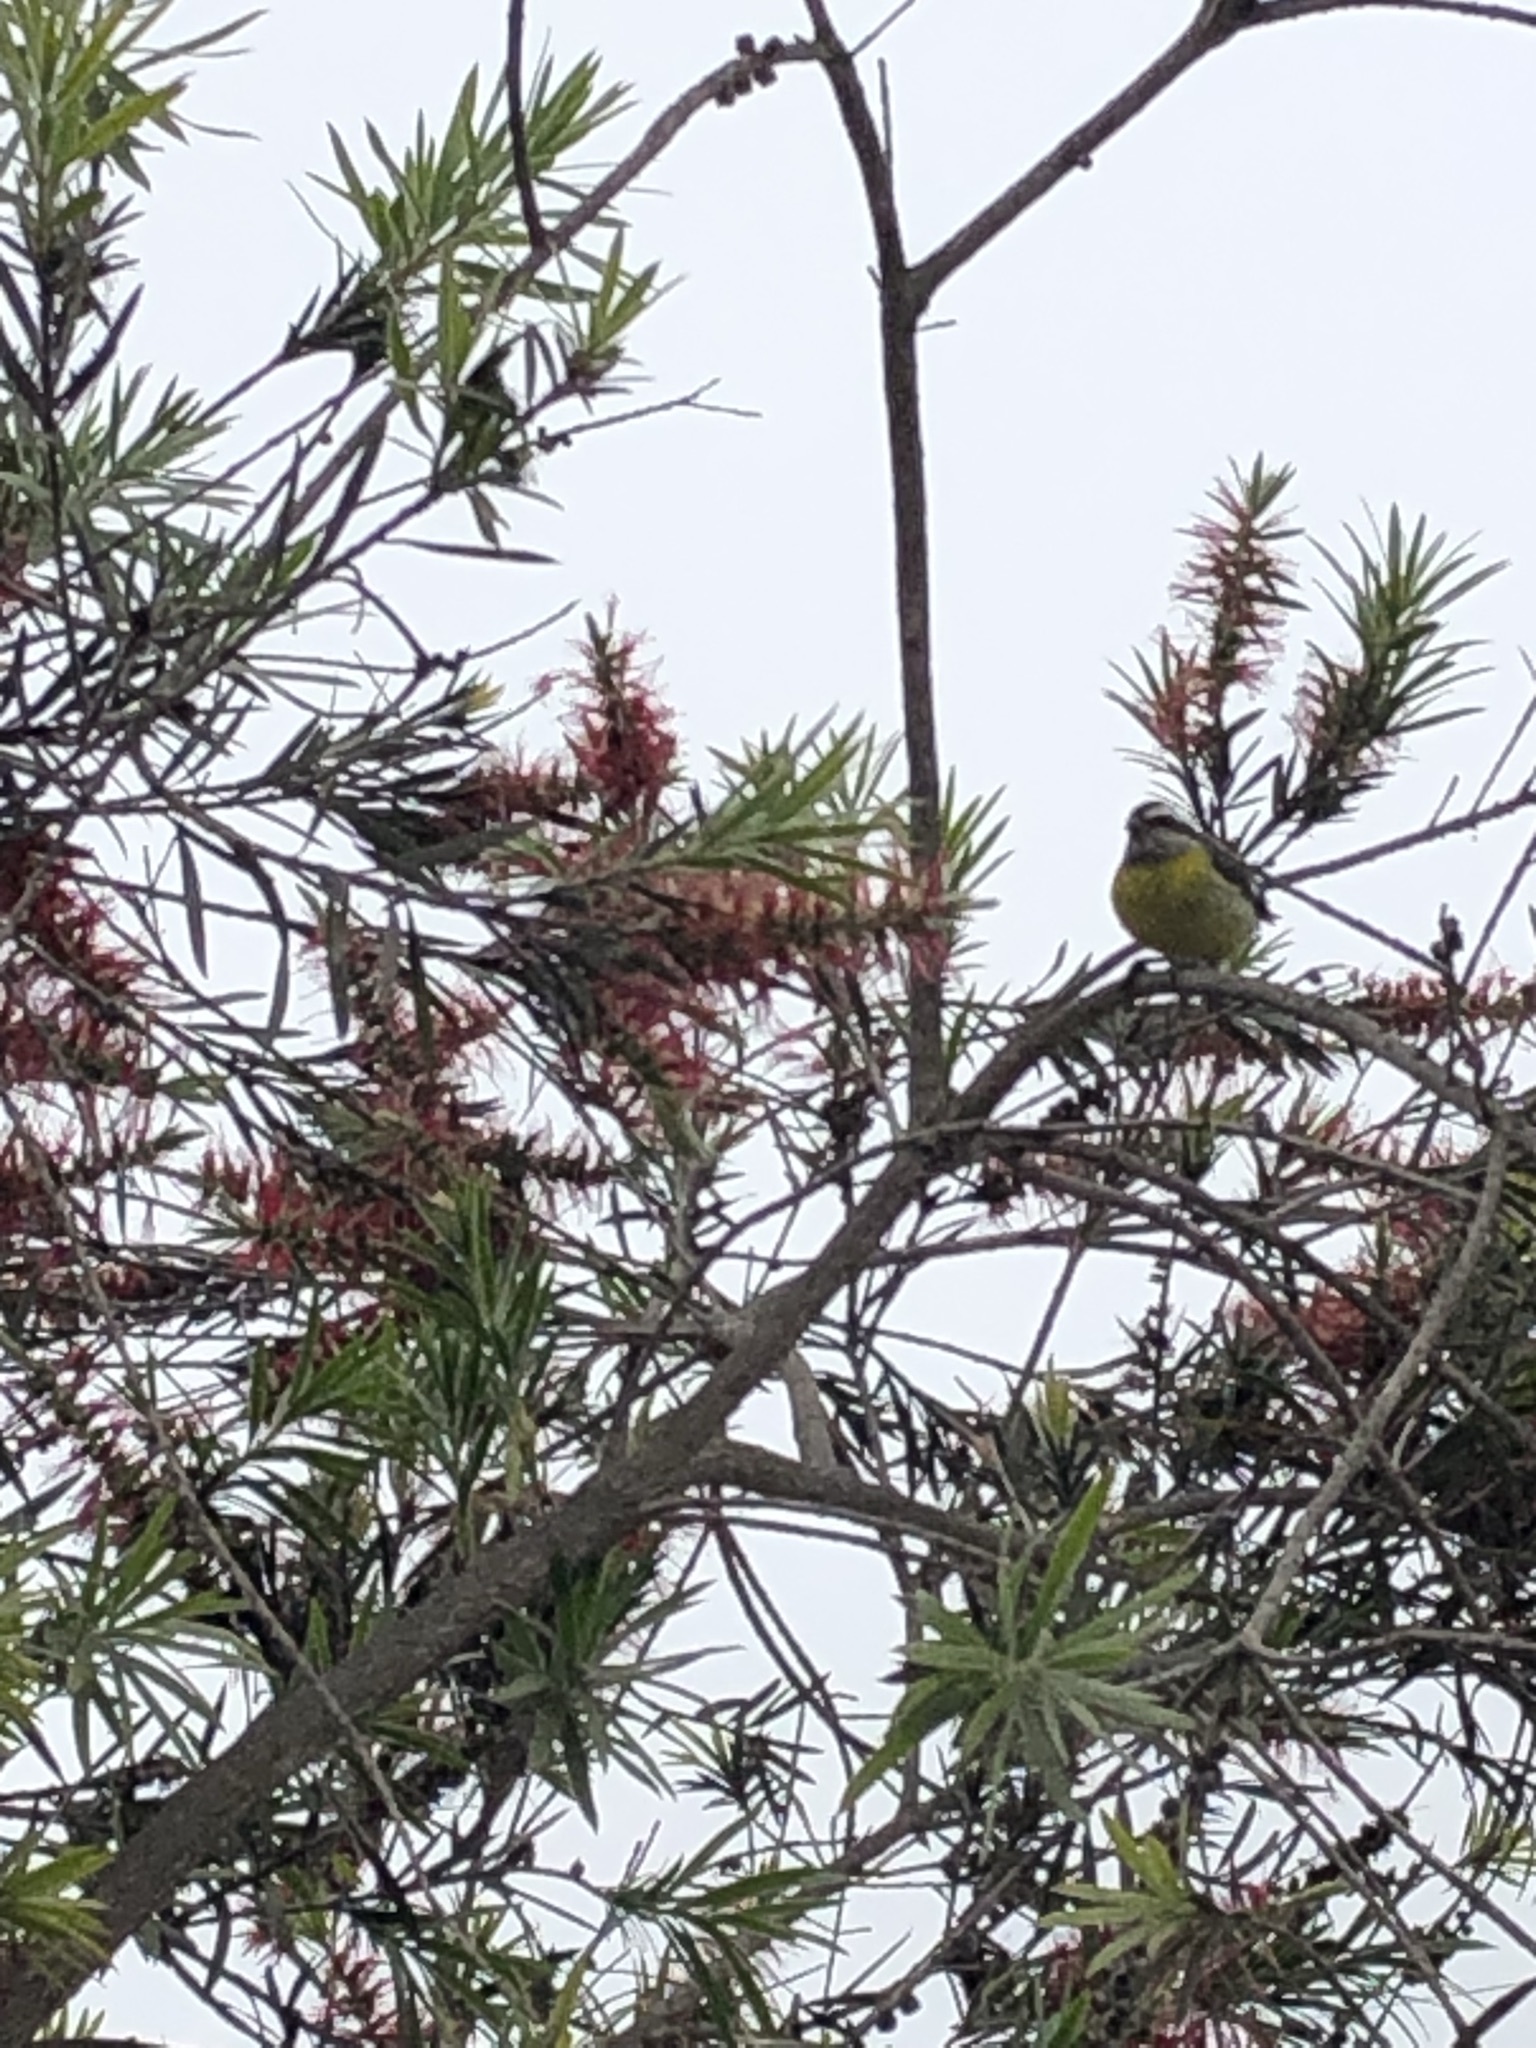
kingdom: Animalia
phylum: Chordata
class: Aves
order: Passeriformes
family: Thraupidae
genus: Coereba
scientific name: Coereba flaveola
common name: Bananaquit
